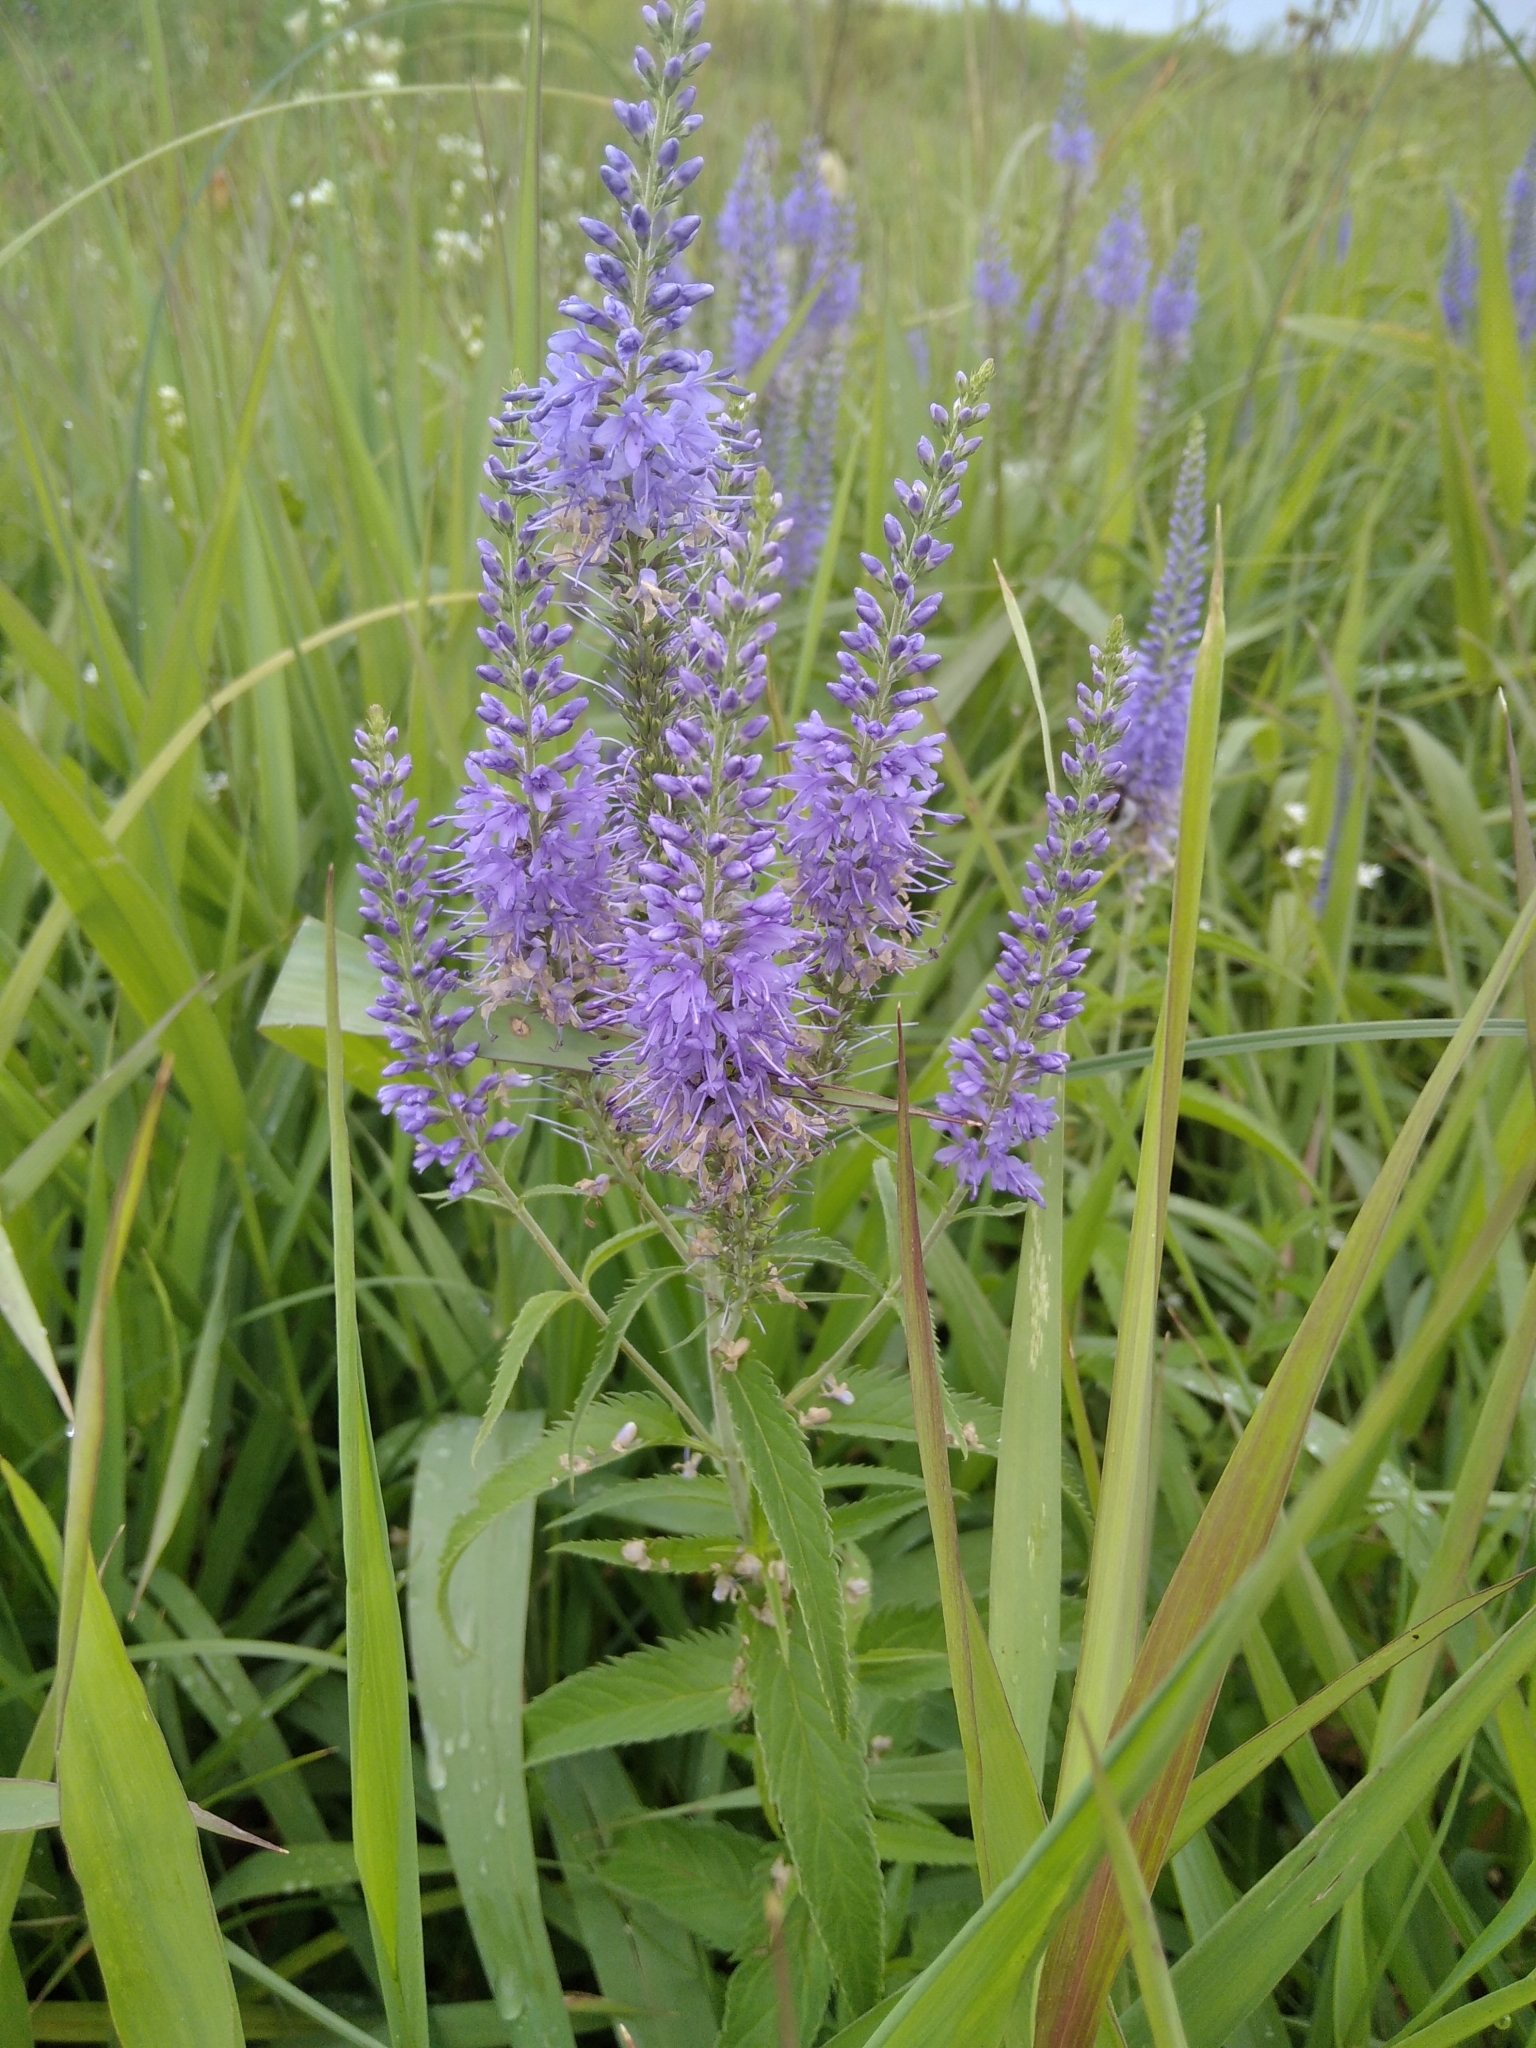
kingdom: Plantae
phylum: Tracheophyta
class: Magnoliopsida
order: Lamiales
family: Plantaginaceae
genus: Veronica
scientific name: Veronica longifolia
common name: Garden speedwell
